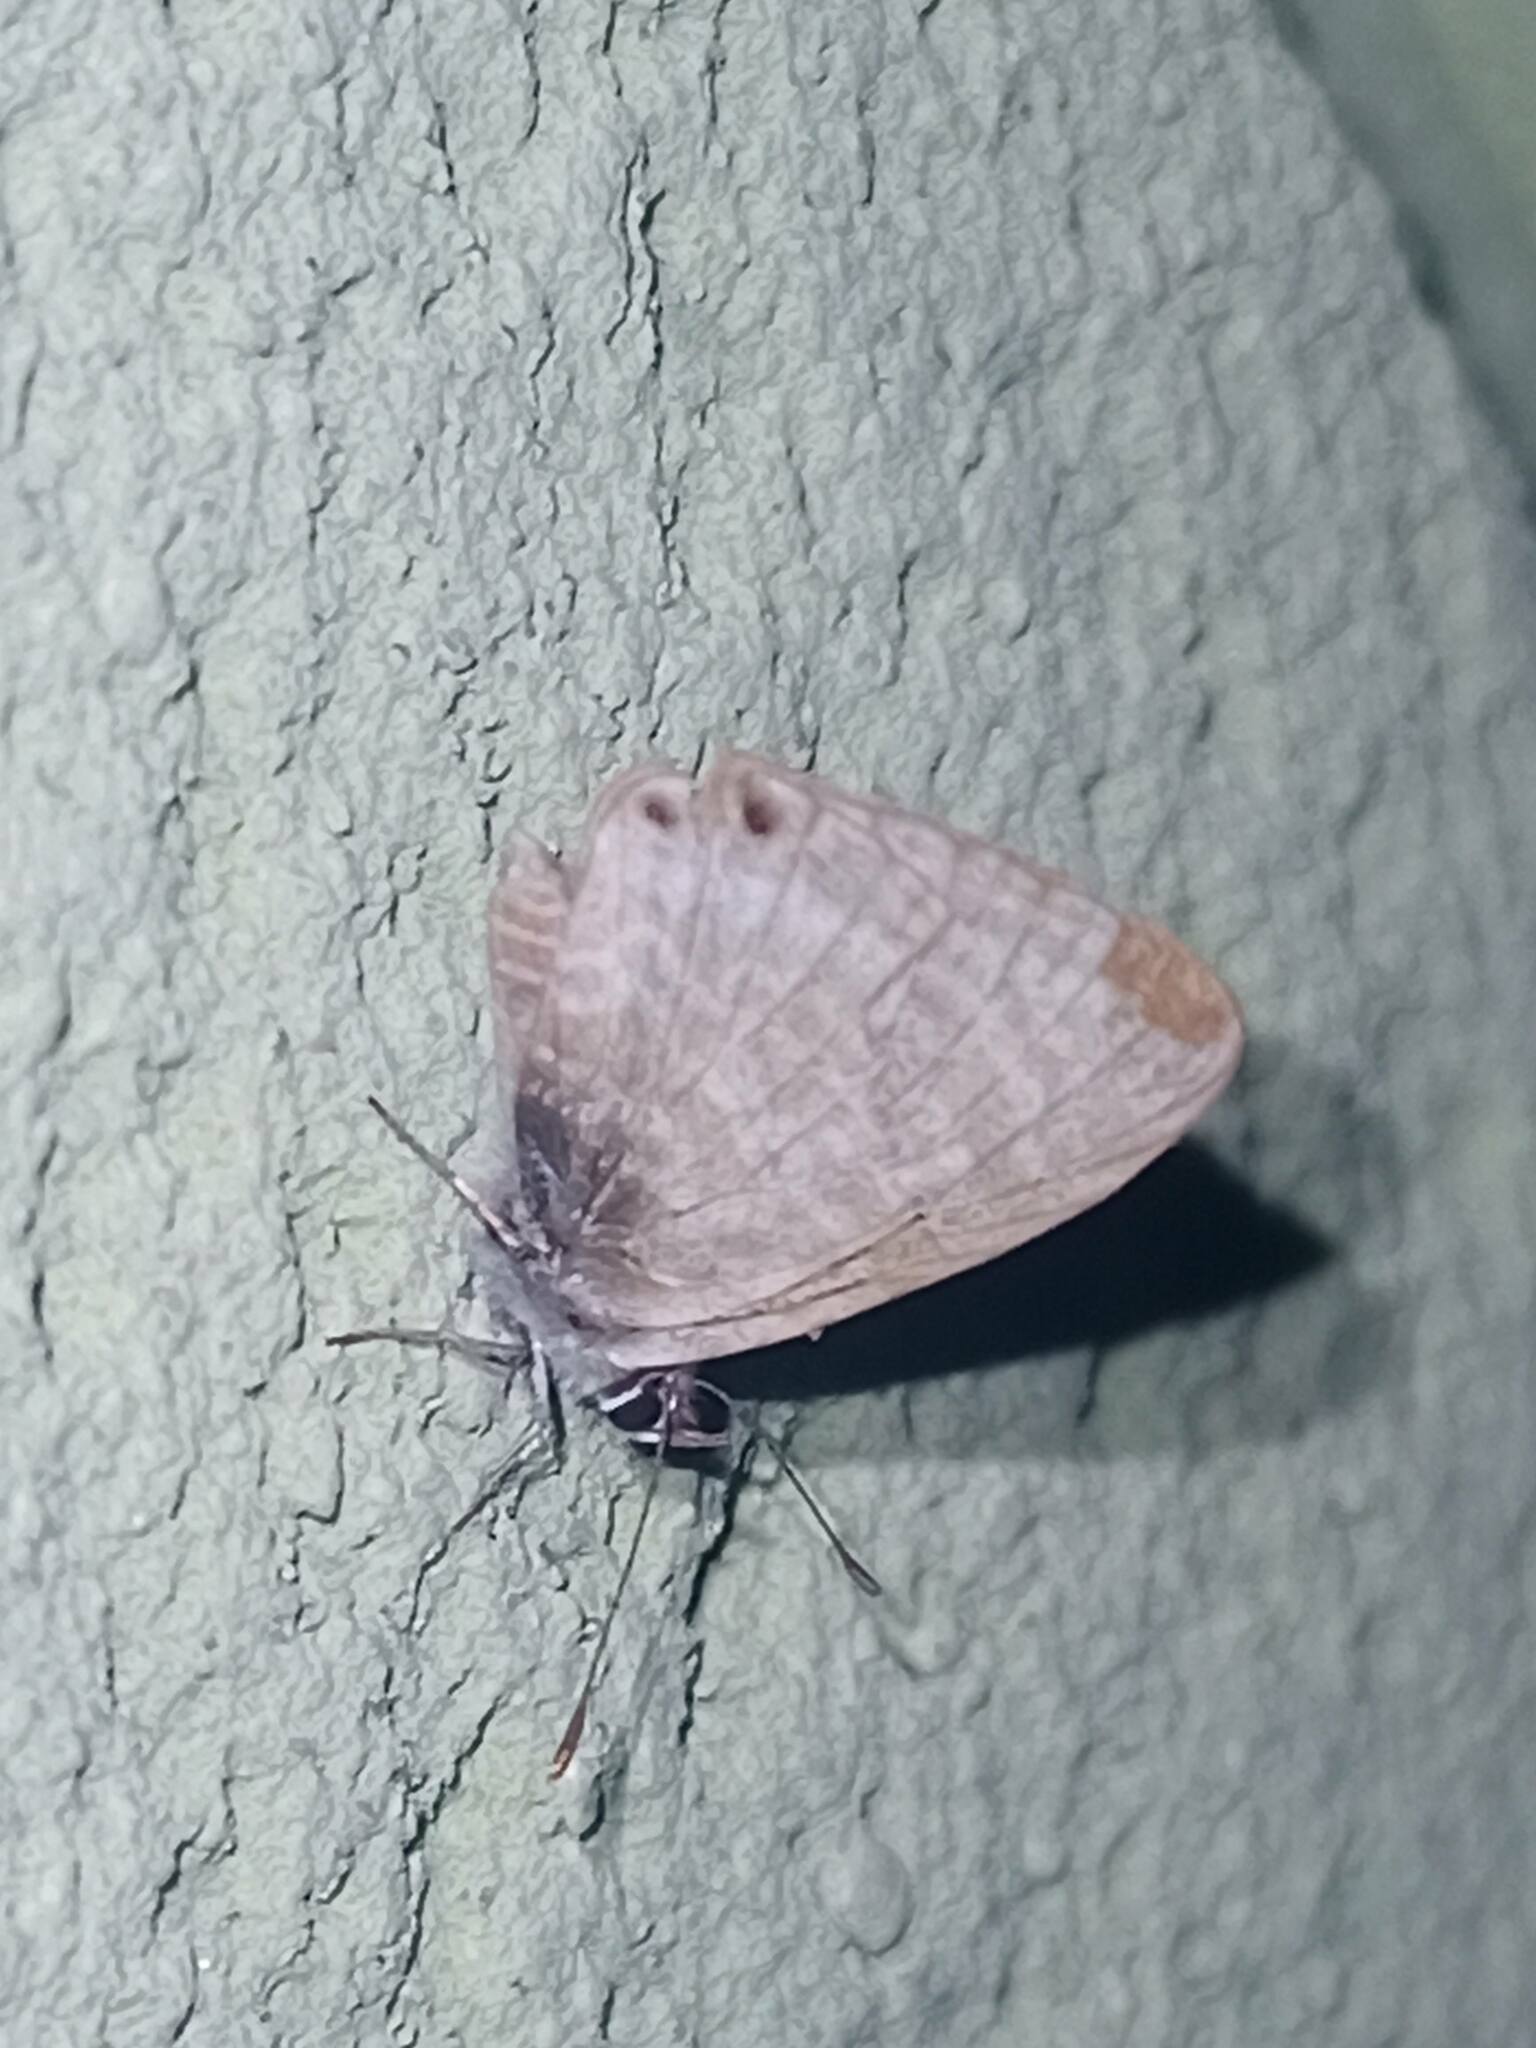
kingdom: Animalia
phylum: Arthropoda
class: Insecta
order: Lepidoptera
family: Lycaenidae
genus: Leptotes
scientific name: Leptotes pirithous
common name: Lang's short-tailed blue
